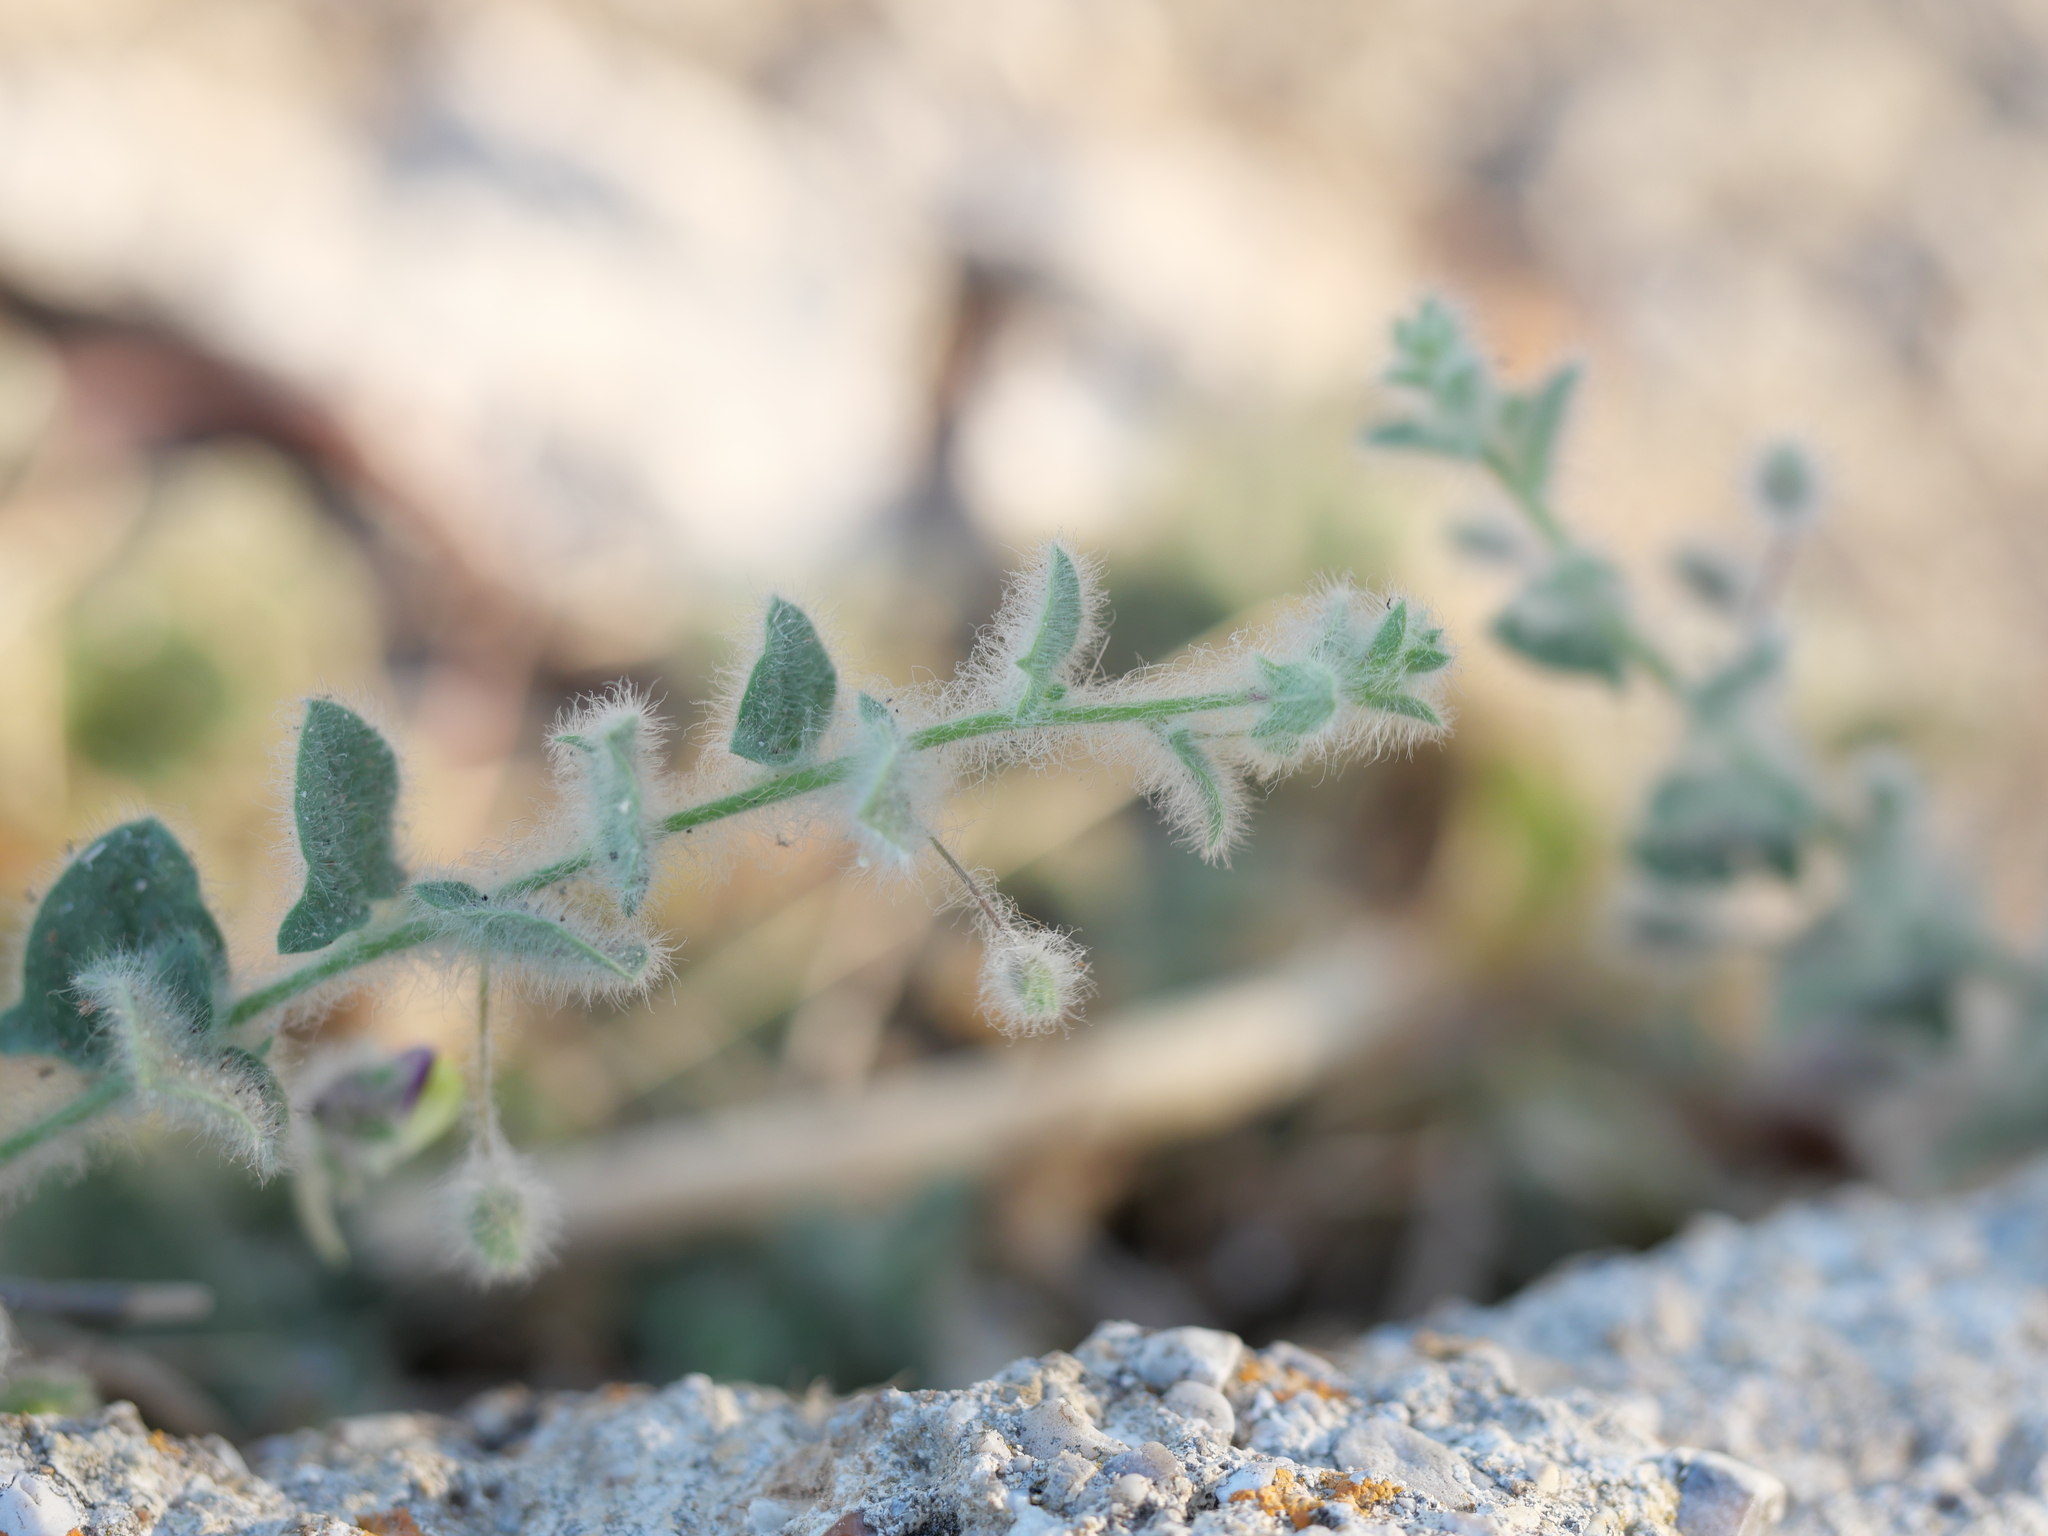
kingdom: Plantae
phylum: Tracheophyta
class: Magnoliopsida
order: Lamiales
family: Plantaginaceae
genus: Kickxia
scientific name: Kickxia elatine
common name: Sharp-leaved fluellen
